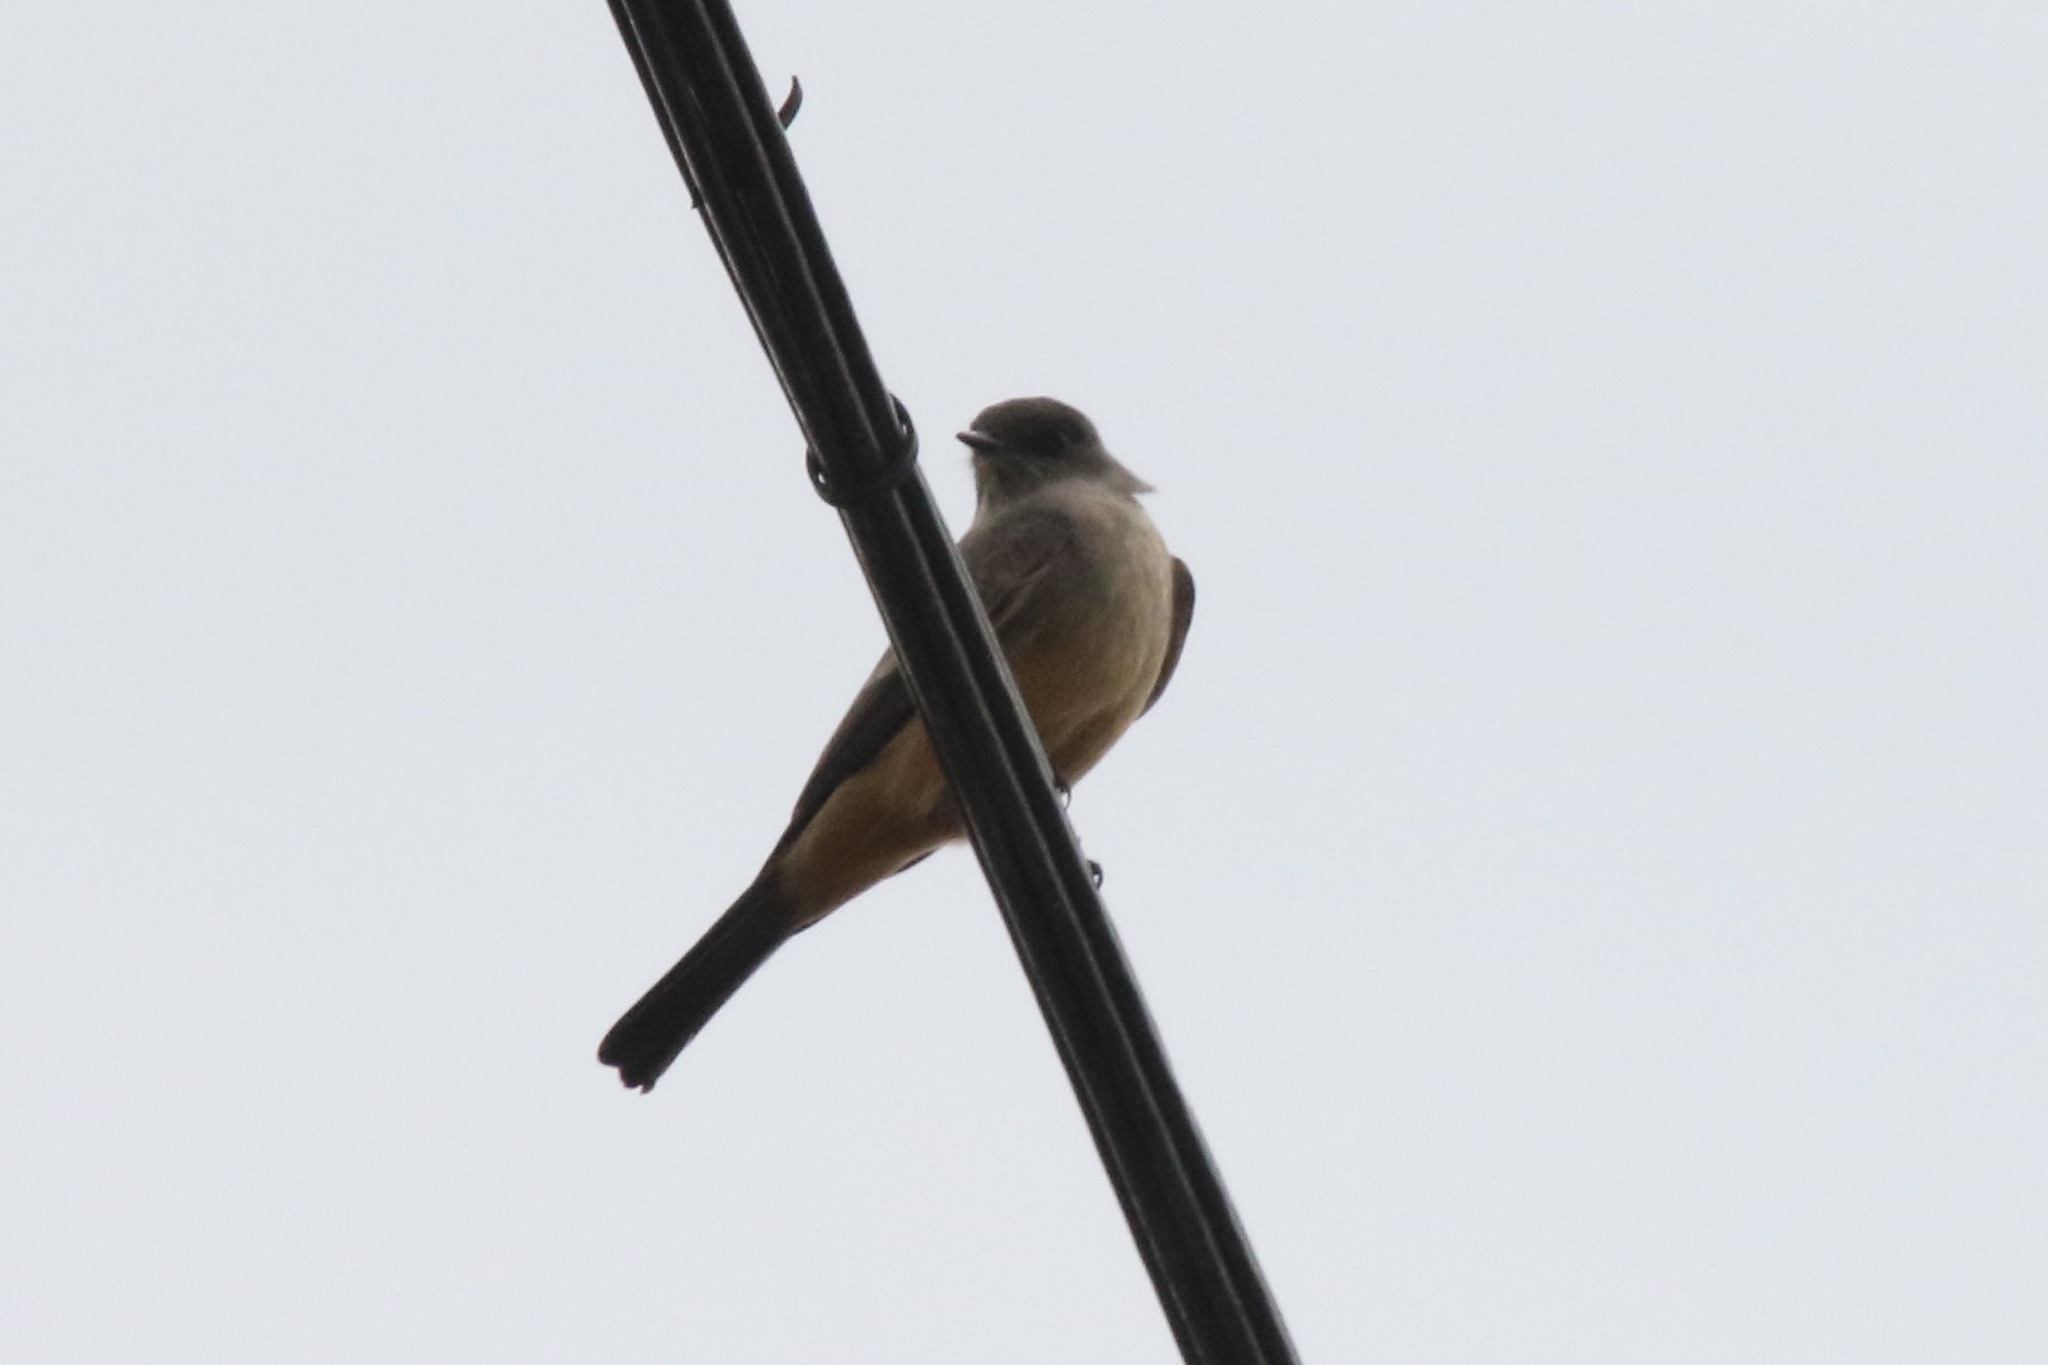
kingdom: Animalia
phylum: Chordata
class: Aves
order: Passeriformes
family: Tyrannidae
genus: Sayornis
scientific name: Sayornis saya
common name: Say's phoebe
